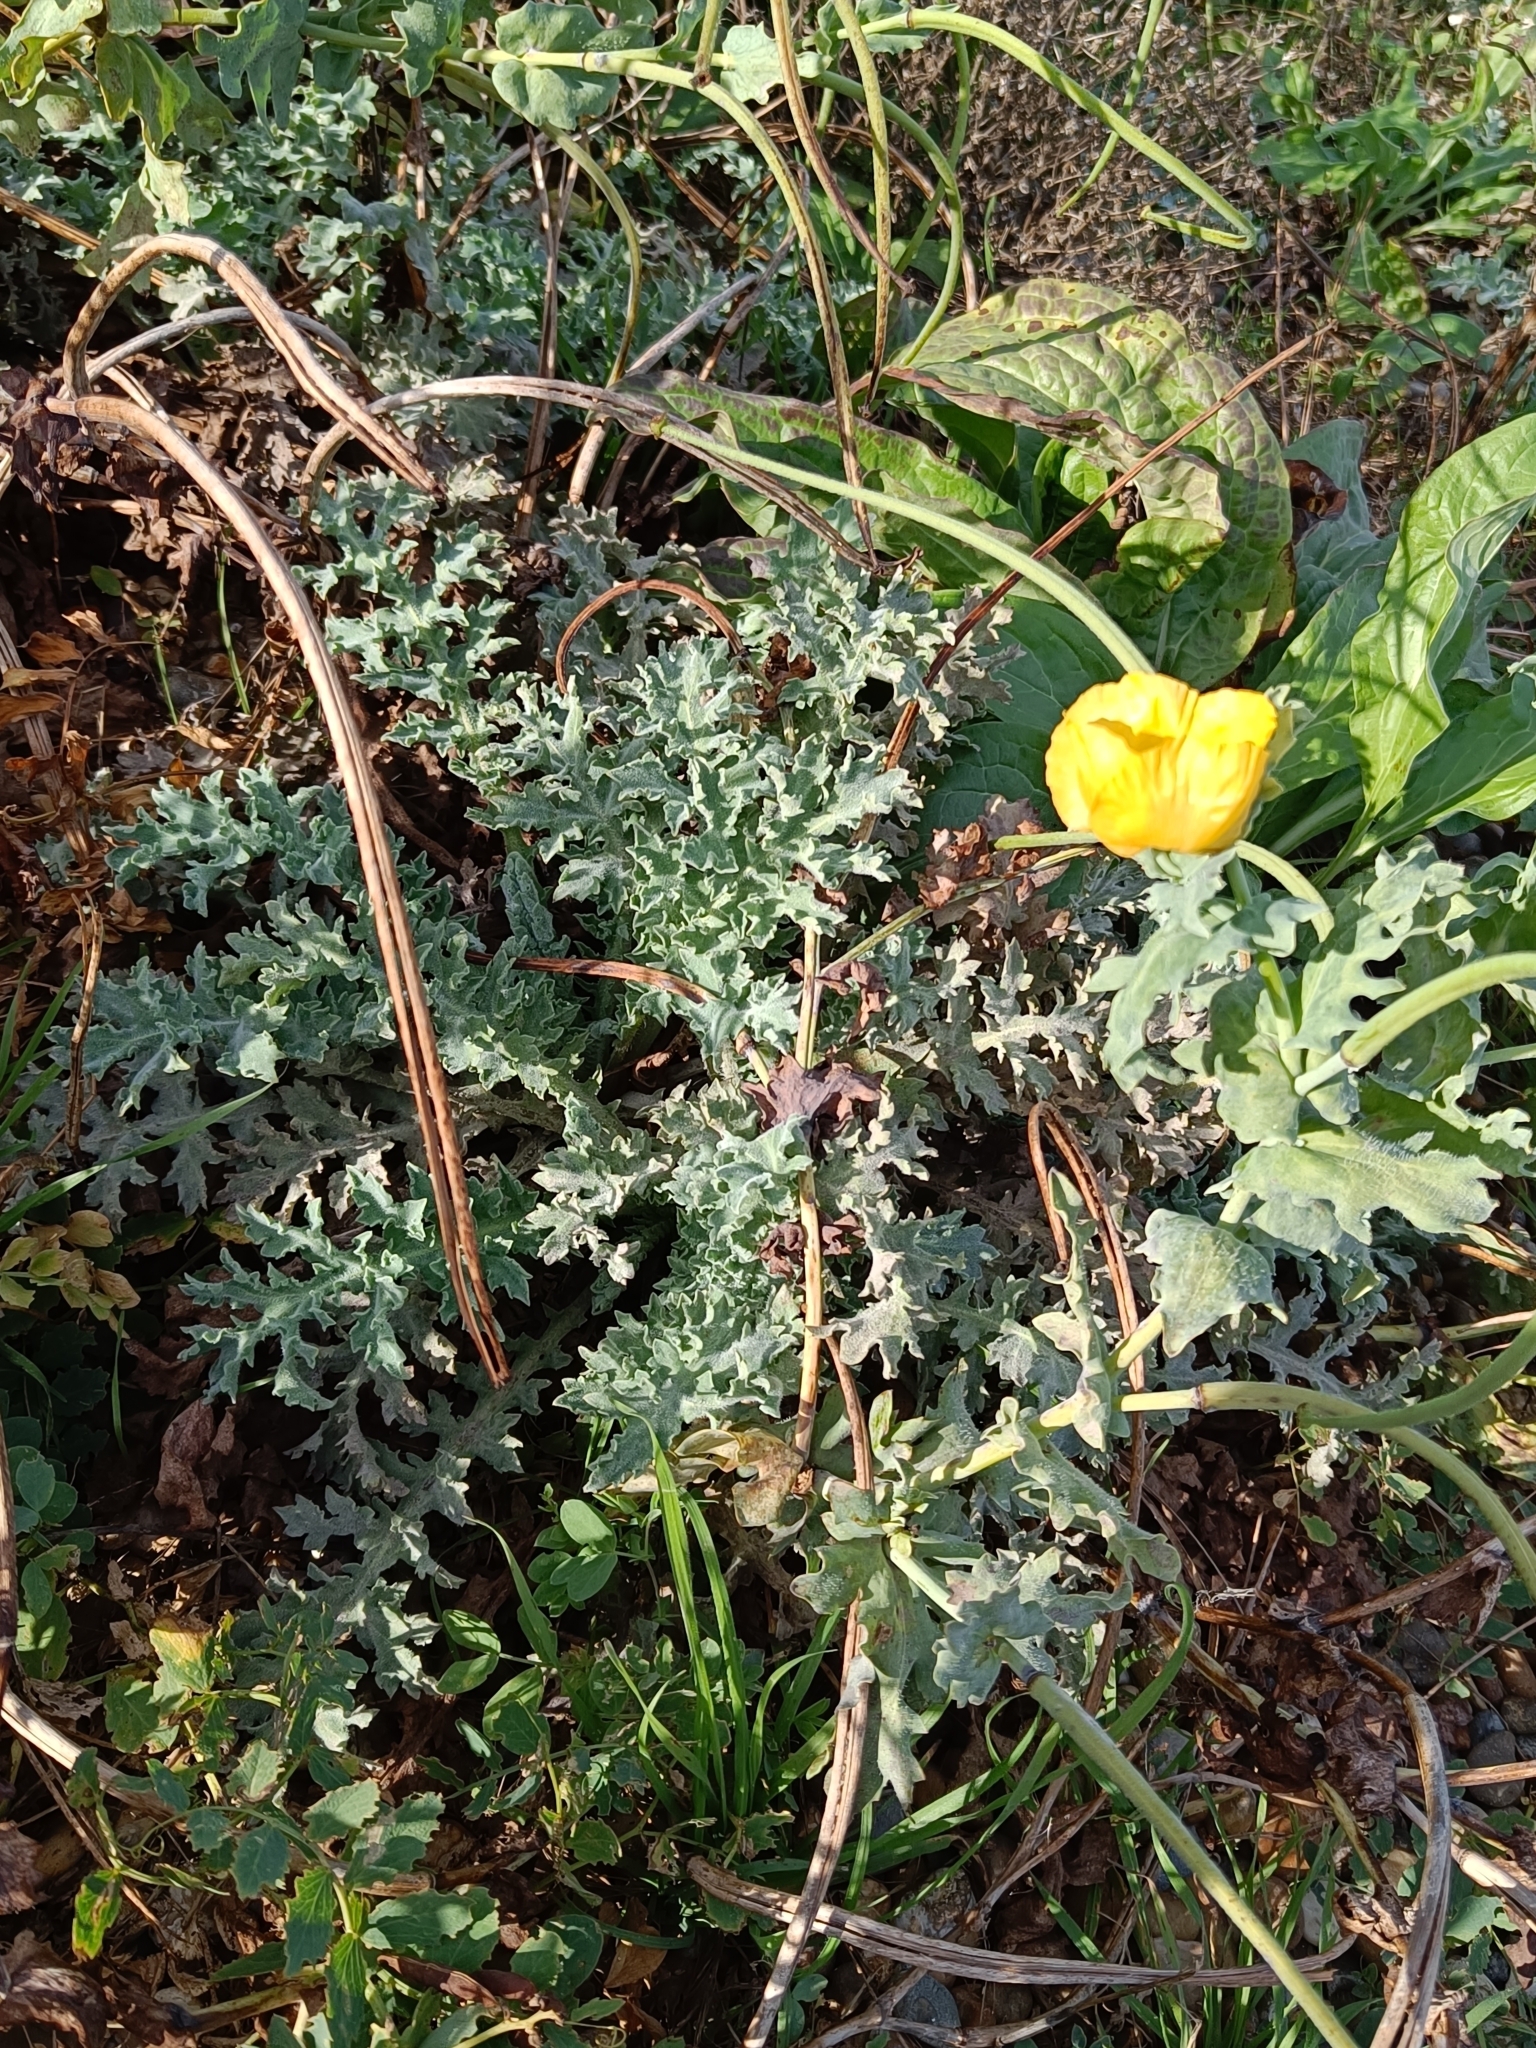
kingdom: Plantae
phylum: Tracheophyta
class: Magnoliopsida
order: Ranunculales
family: Papaveraceae
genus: Glaucium
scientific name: Glaucium flavum
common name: Yellow horned-poppy
